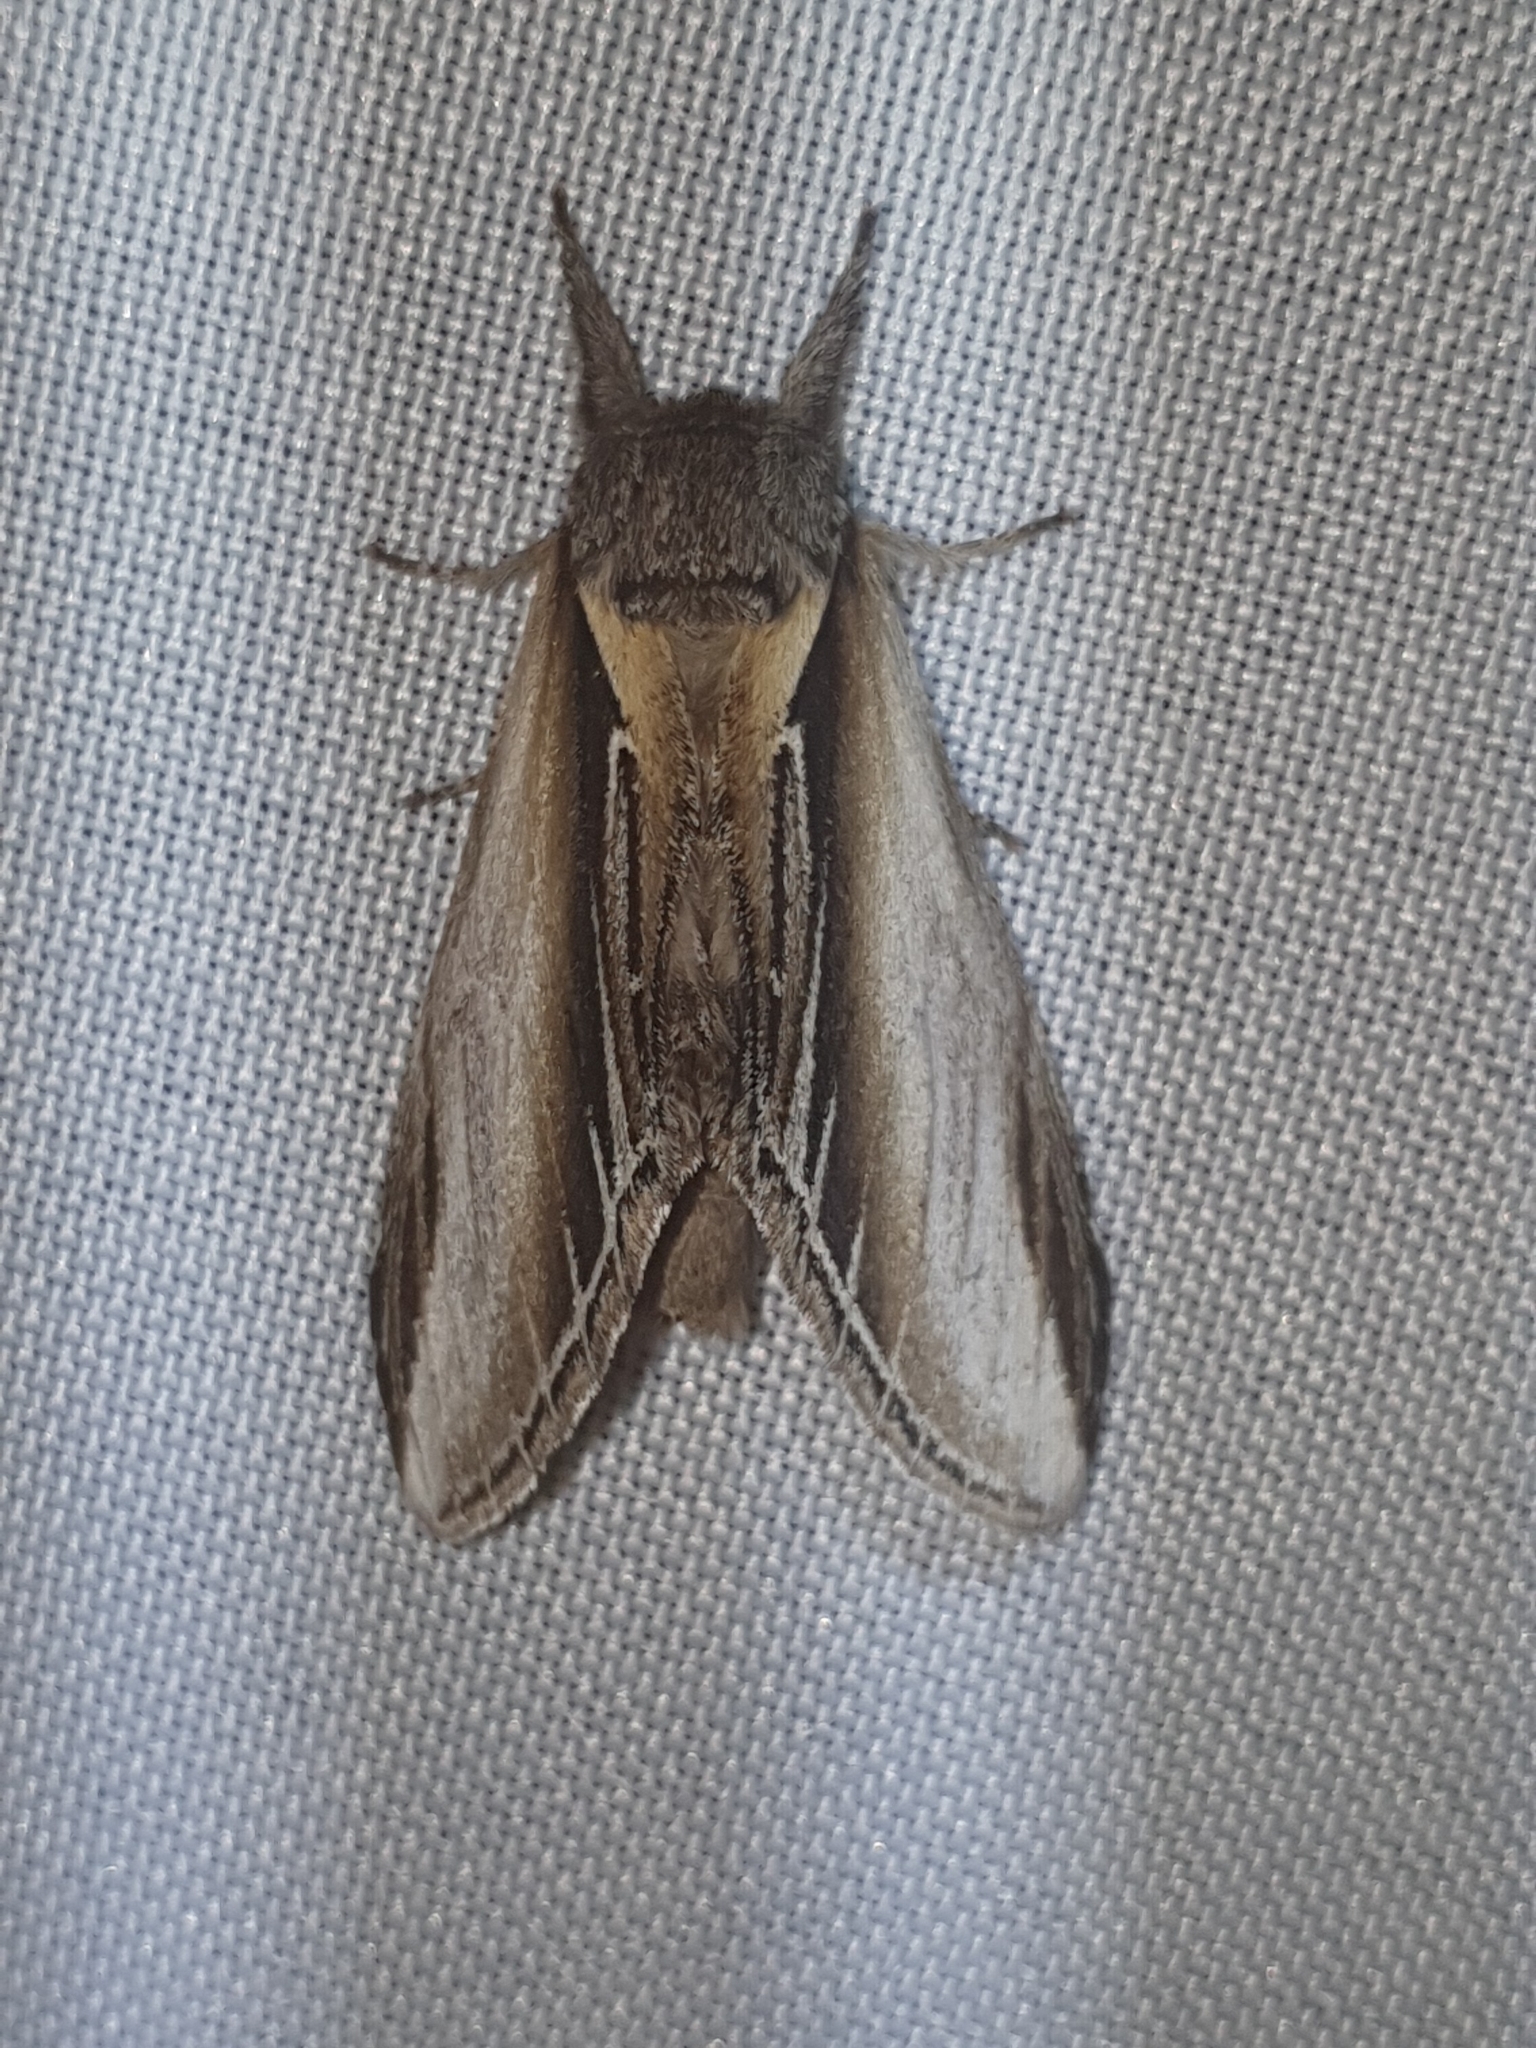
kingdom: Animalia
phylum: Arthropoda
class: Insecta
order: Lepidoptera
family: Notodontidae
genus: Pheosia
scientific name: Pheosia tremula
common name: Swallow prominent
